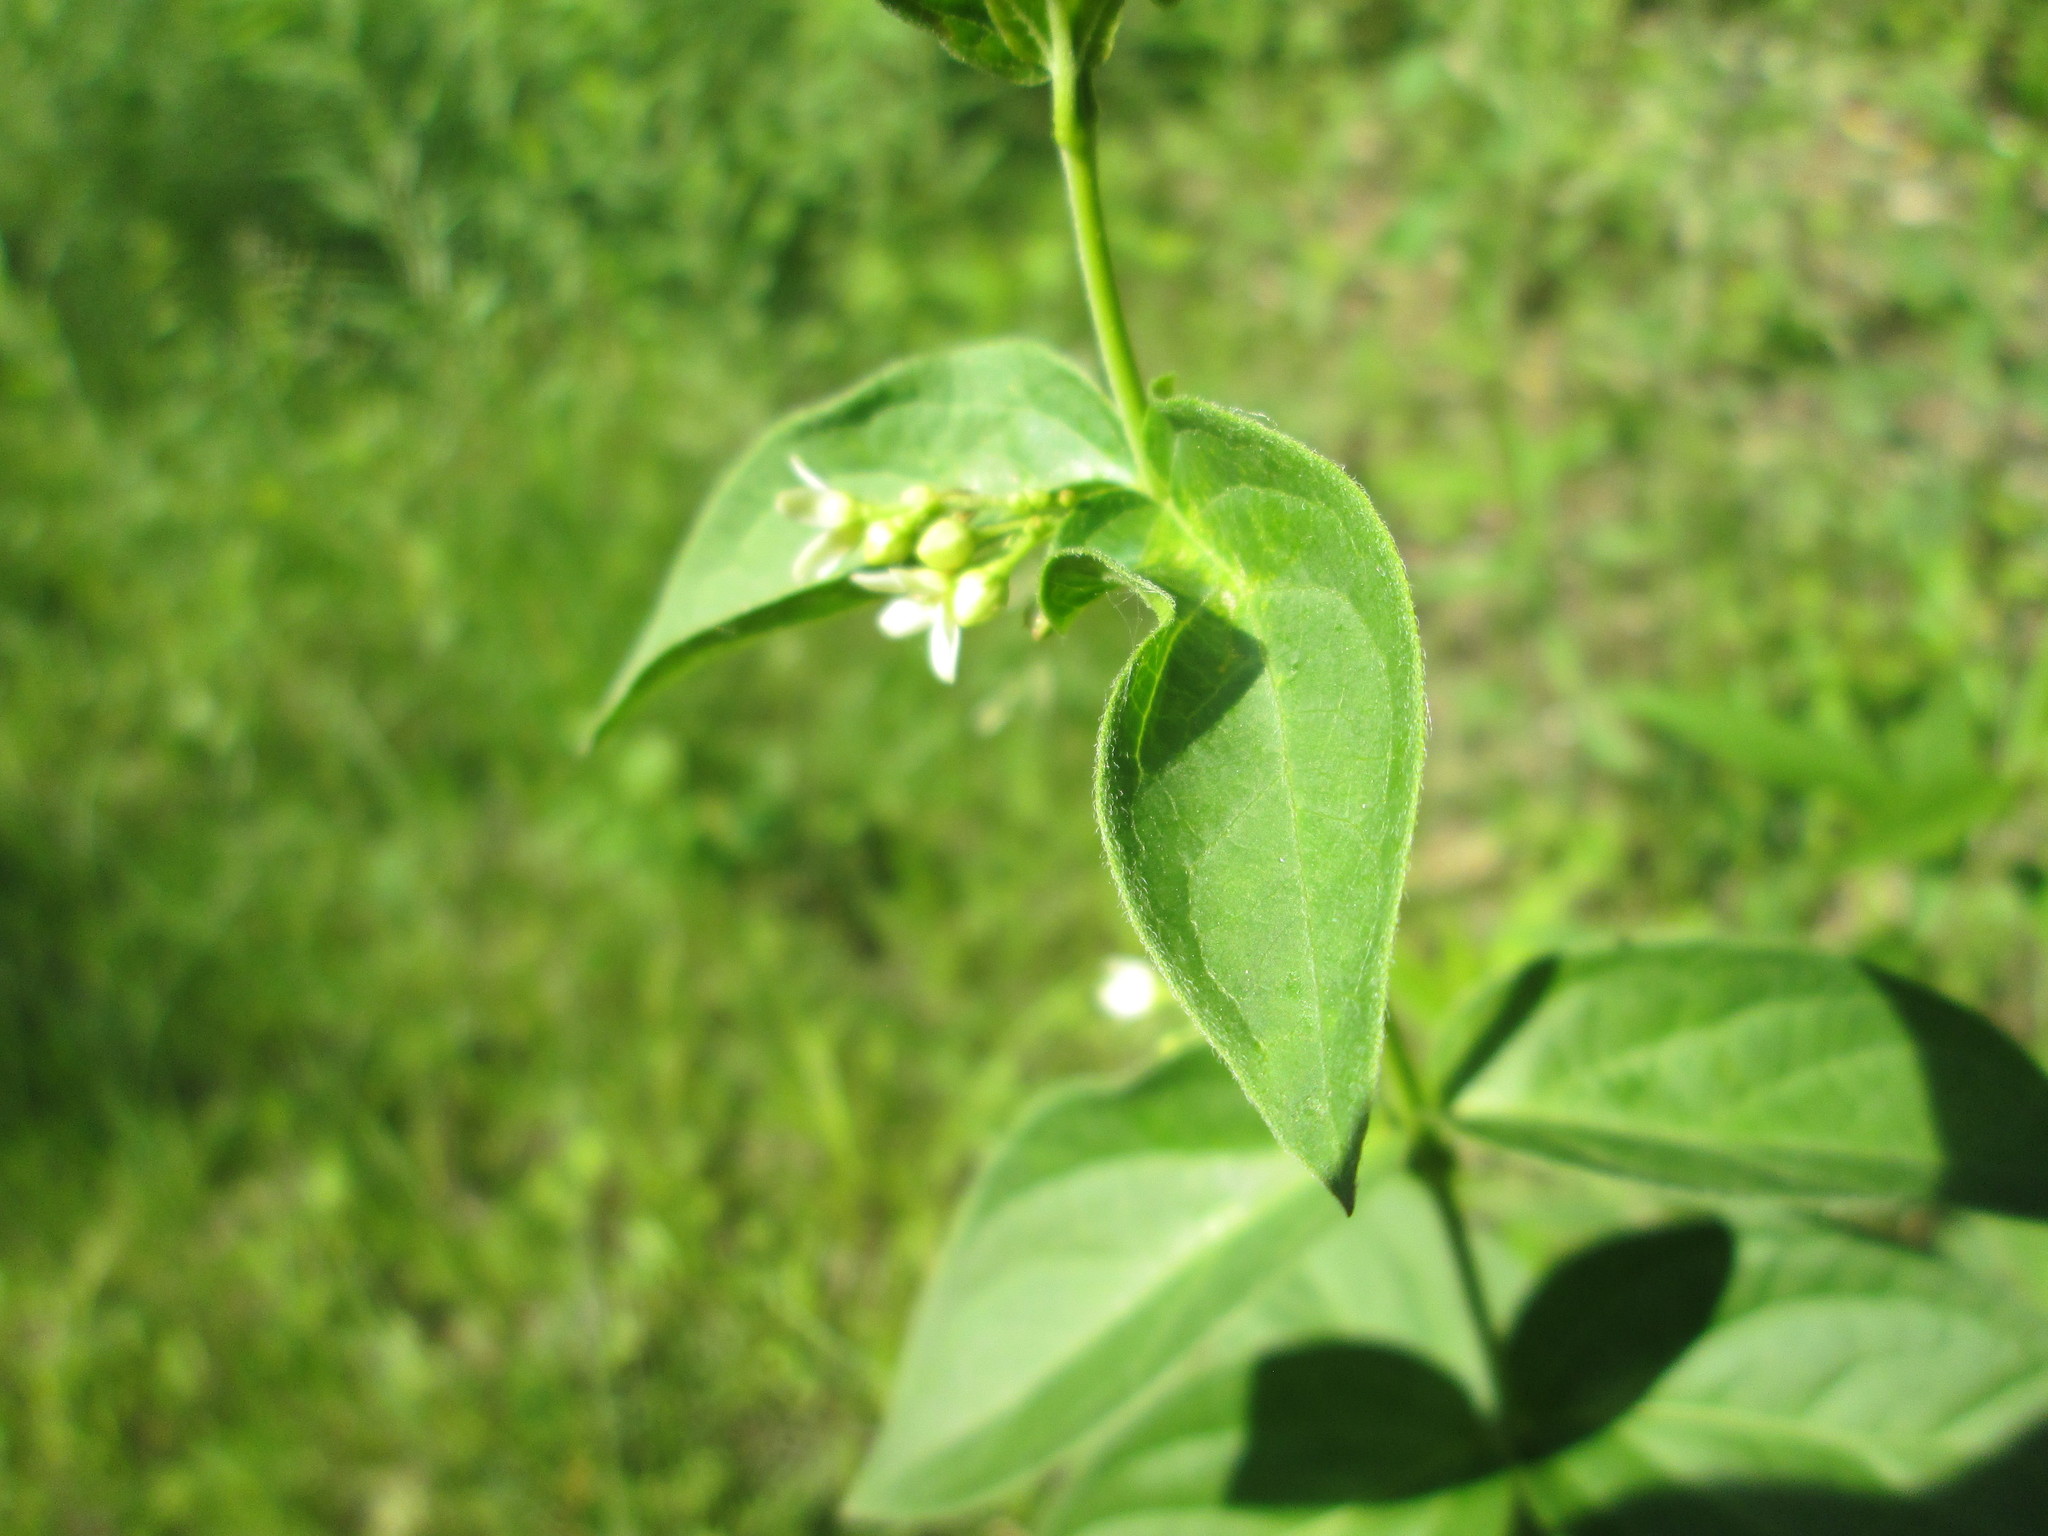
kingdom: Plantae
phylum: Tracheophyta
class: Magnoliopsida
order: Gentianales
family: Apocynaceae
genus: Vincetoxicum
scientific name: Vincetoxicum hirundinaria
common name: White swallowwort
